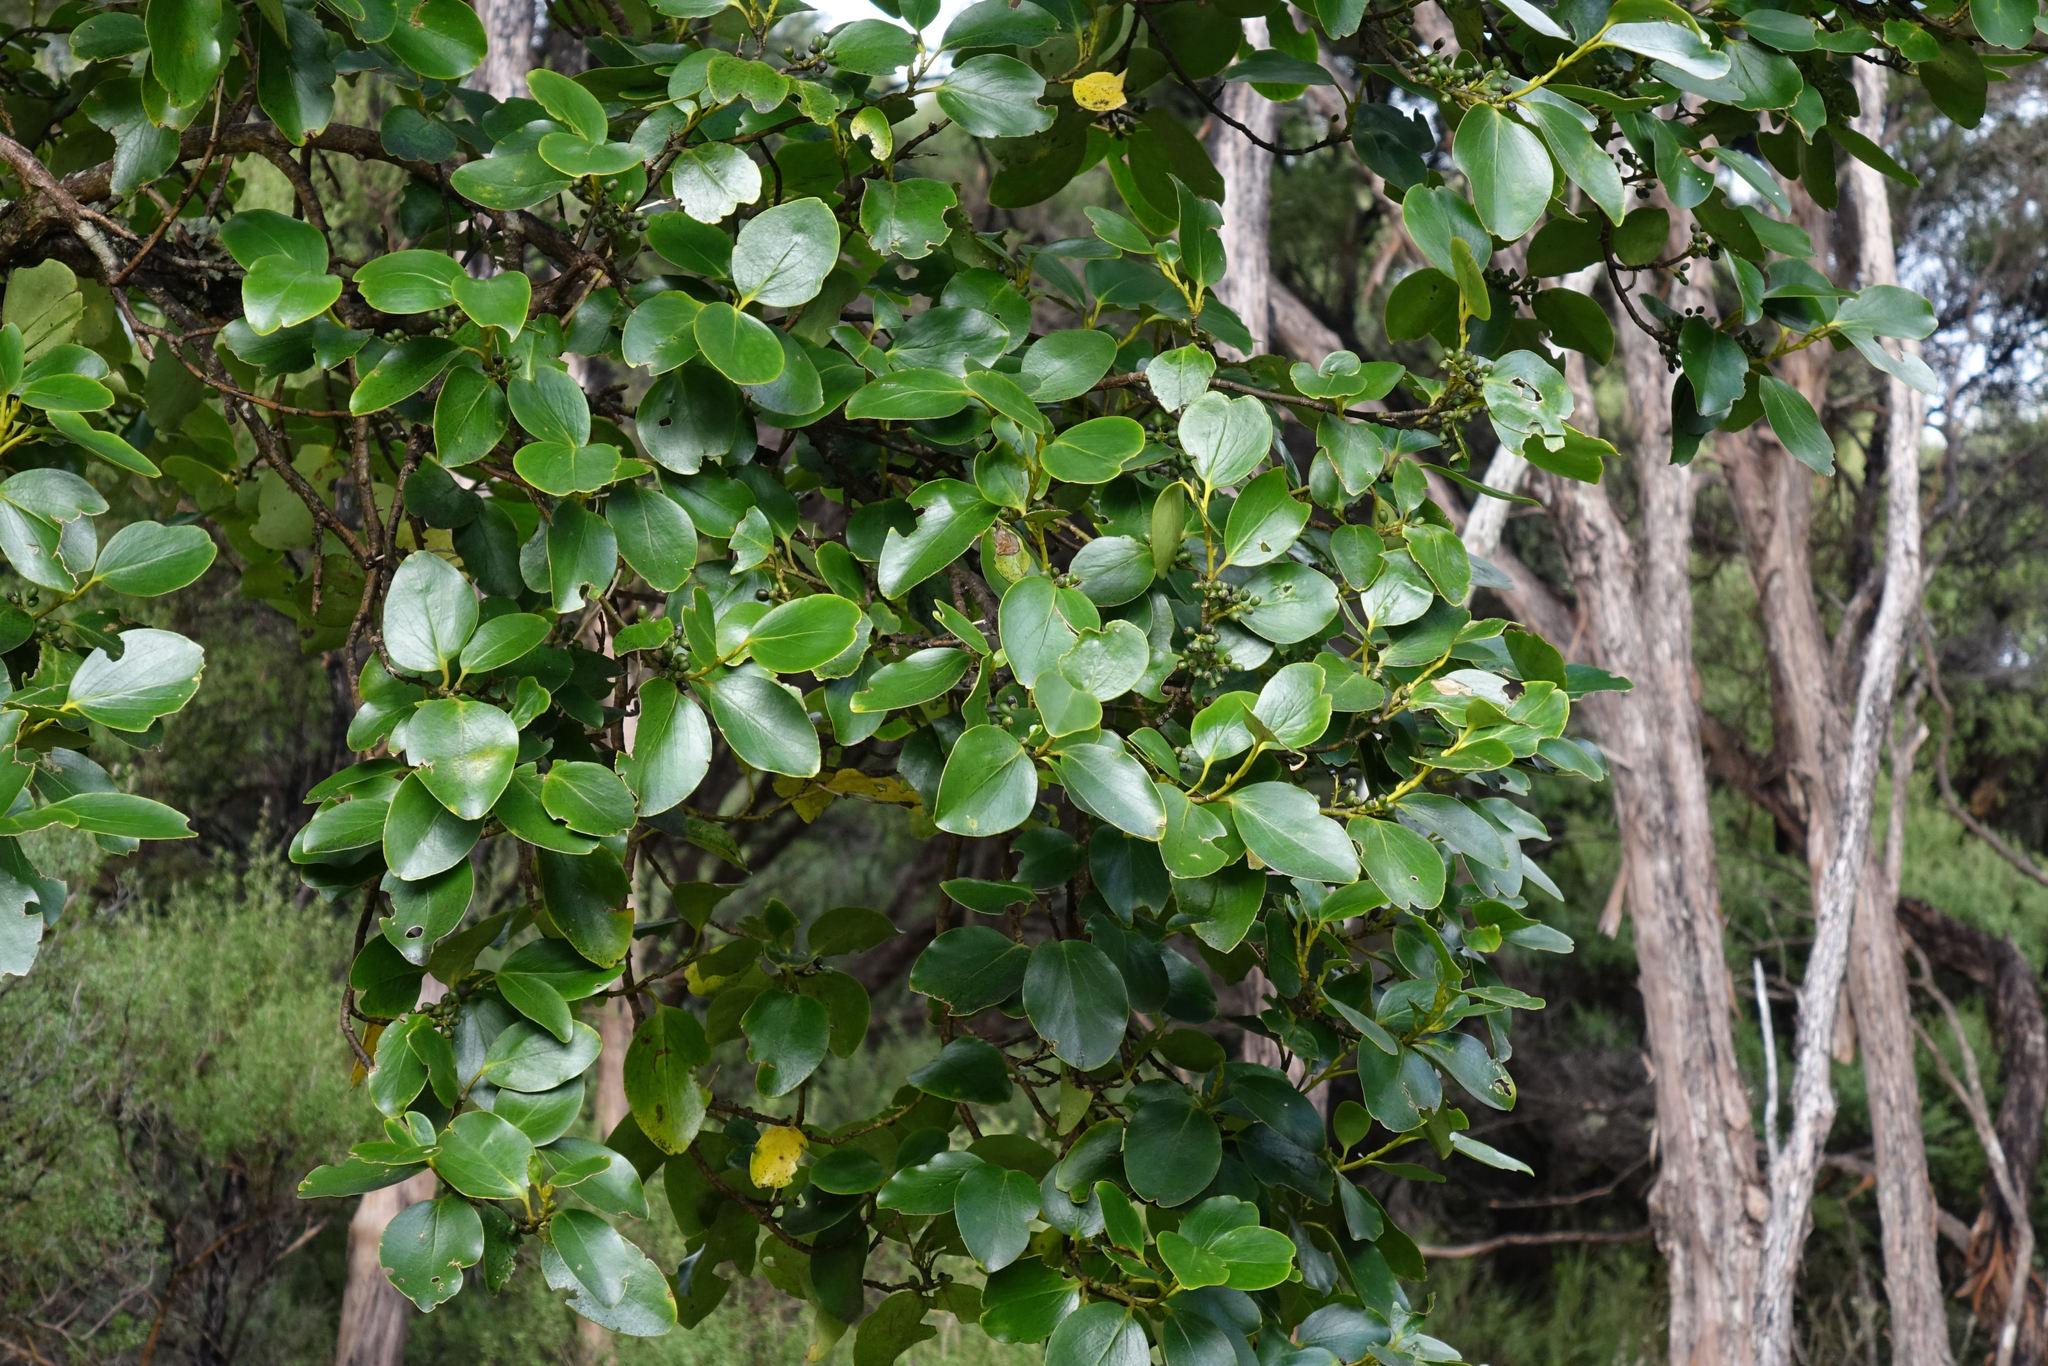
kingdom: Plantae
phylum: Tracheophyta
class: Magnoliopsida
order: Apiales
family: Griseliniaceae
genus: Griselinia
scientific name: Griselinia littoralis
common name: New zealand broadleaf
